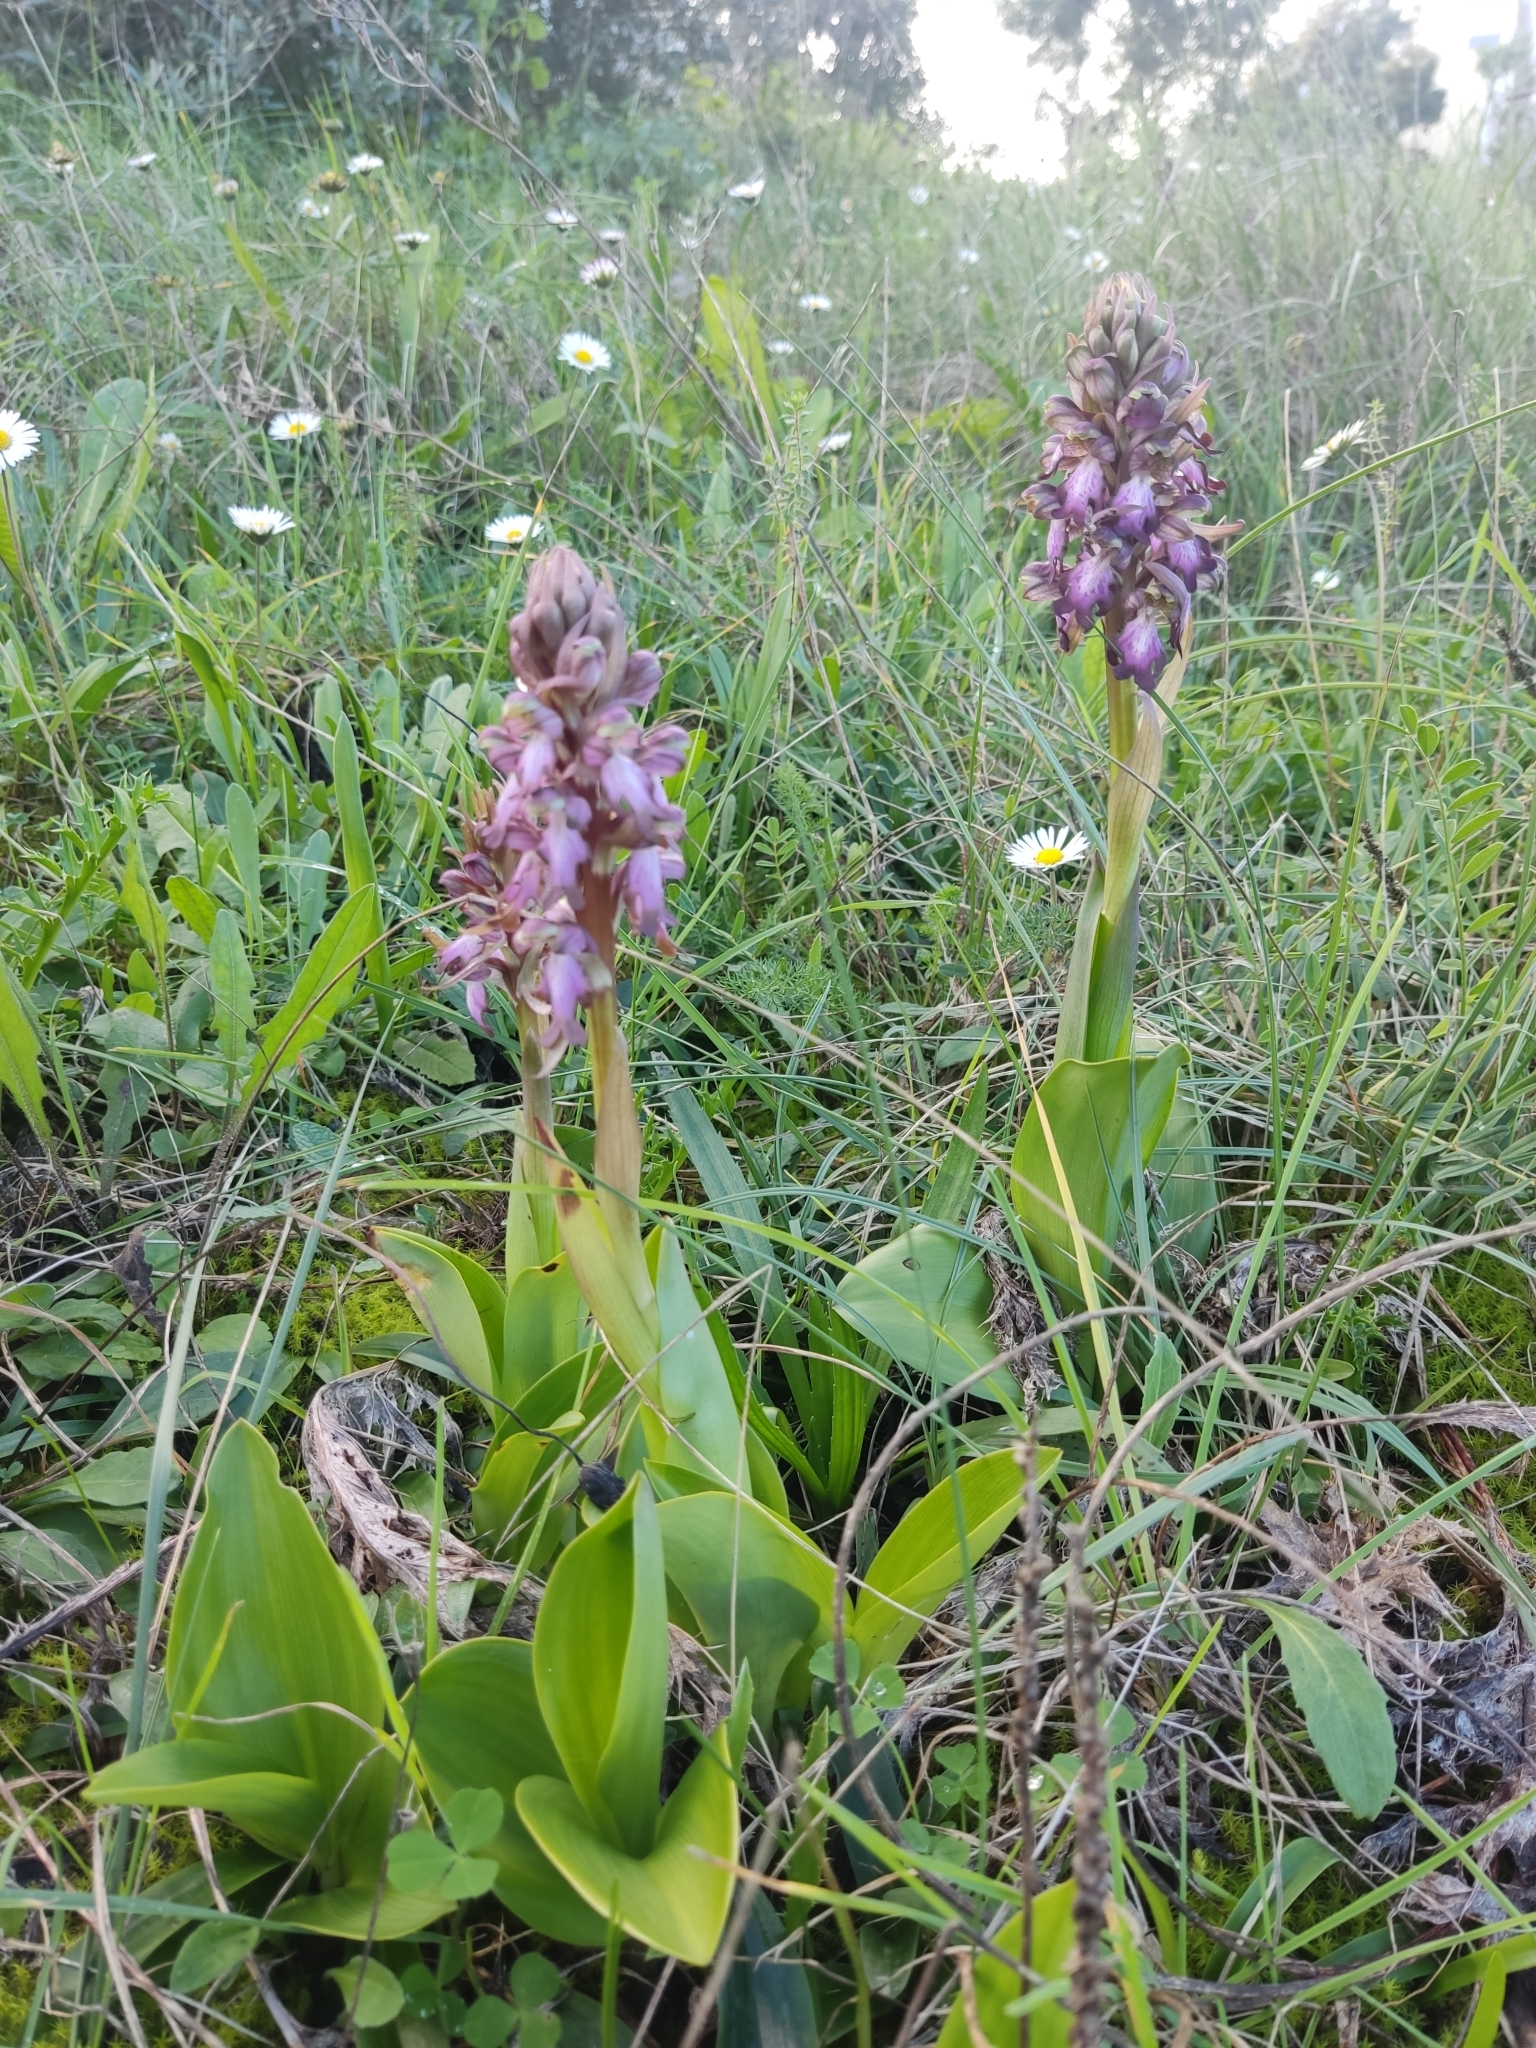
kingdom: Plantae
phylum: Tracheophyta
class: Liliopsida
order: Asparagales
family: Orchidaceae
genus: Himantoglossum
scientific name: Himantoglossum robertianum
